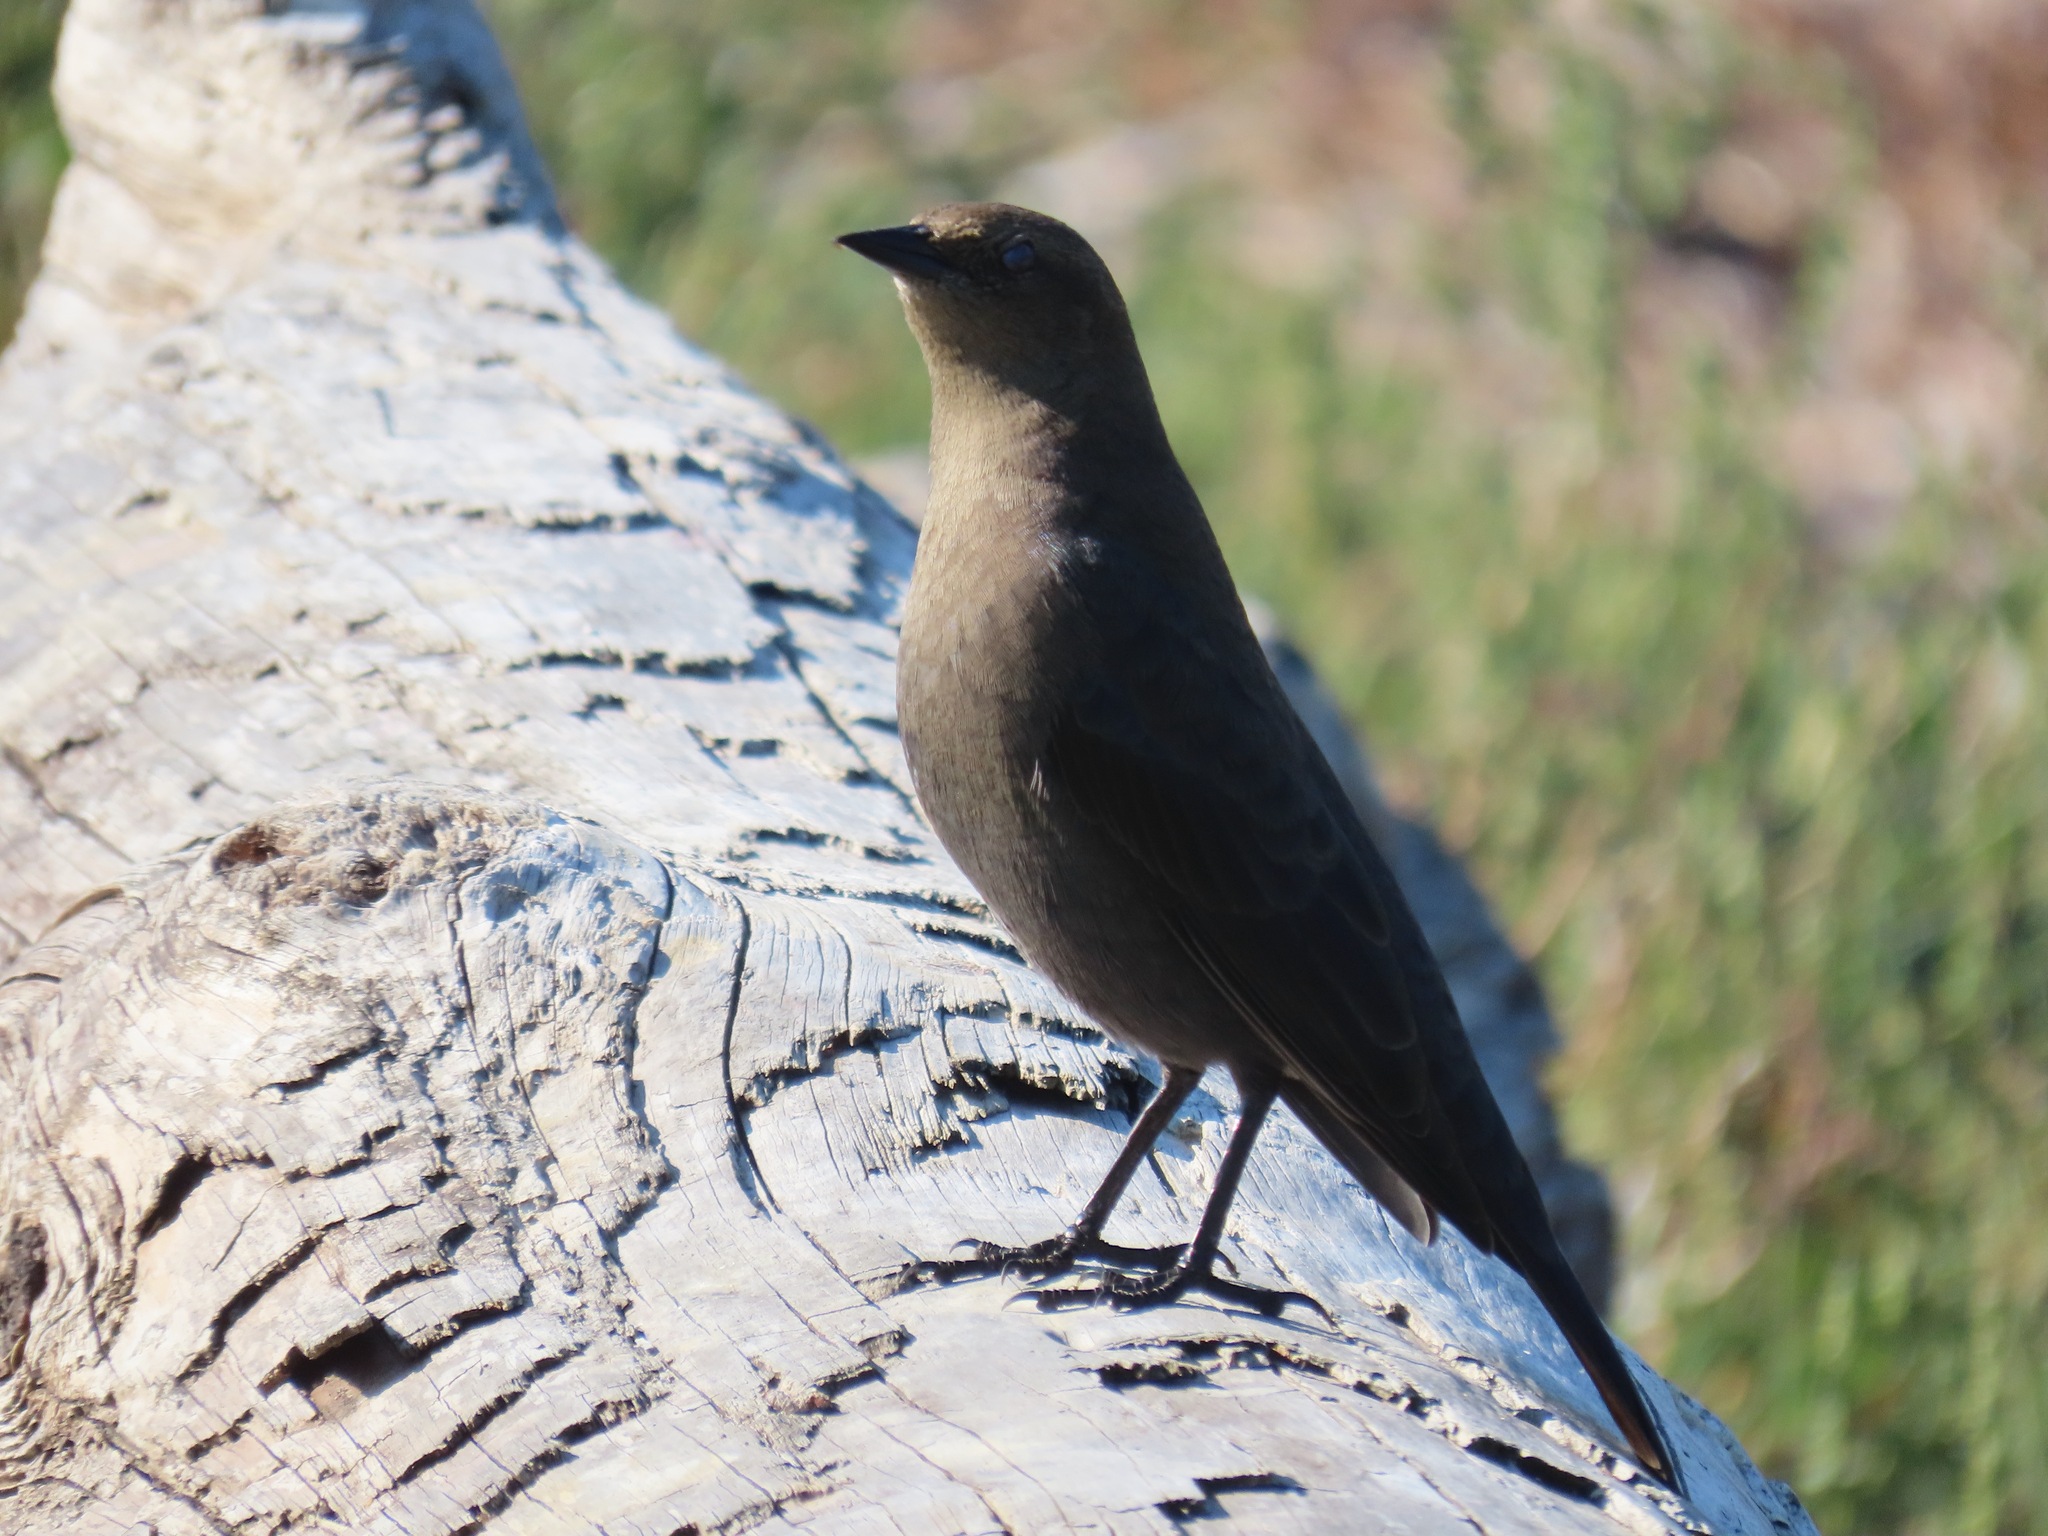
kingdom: Animalia
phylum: Chordata
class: Aves
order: Passeriformes
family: Icteridae
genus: Euphagus
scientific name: Euphagus cyanocephalus
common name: Brewer's blackbird
